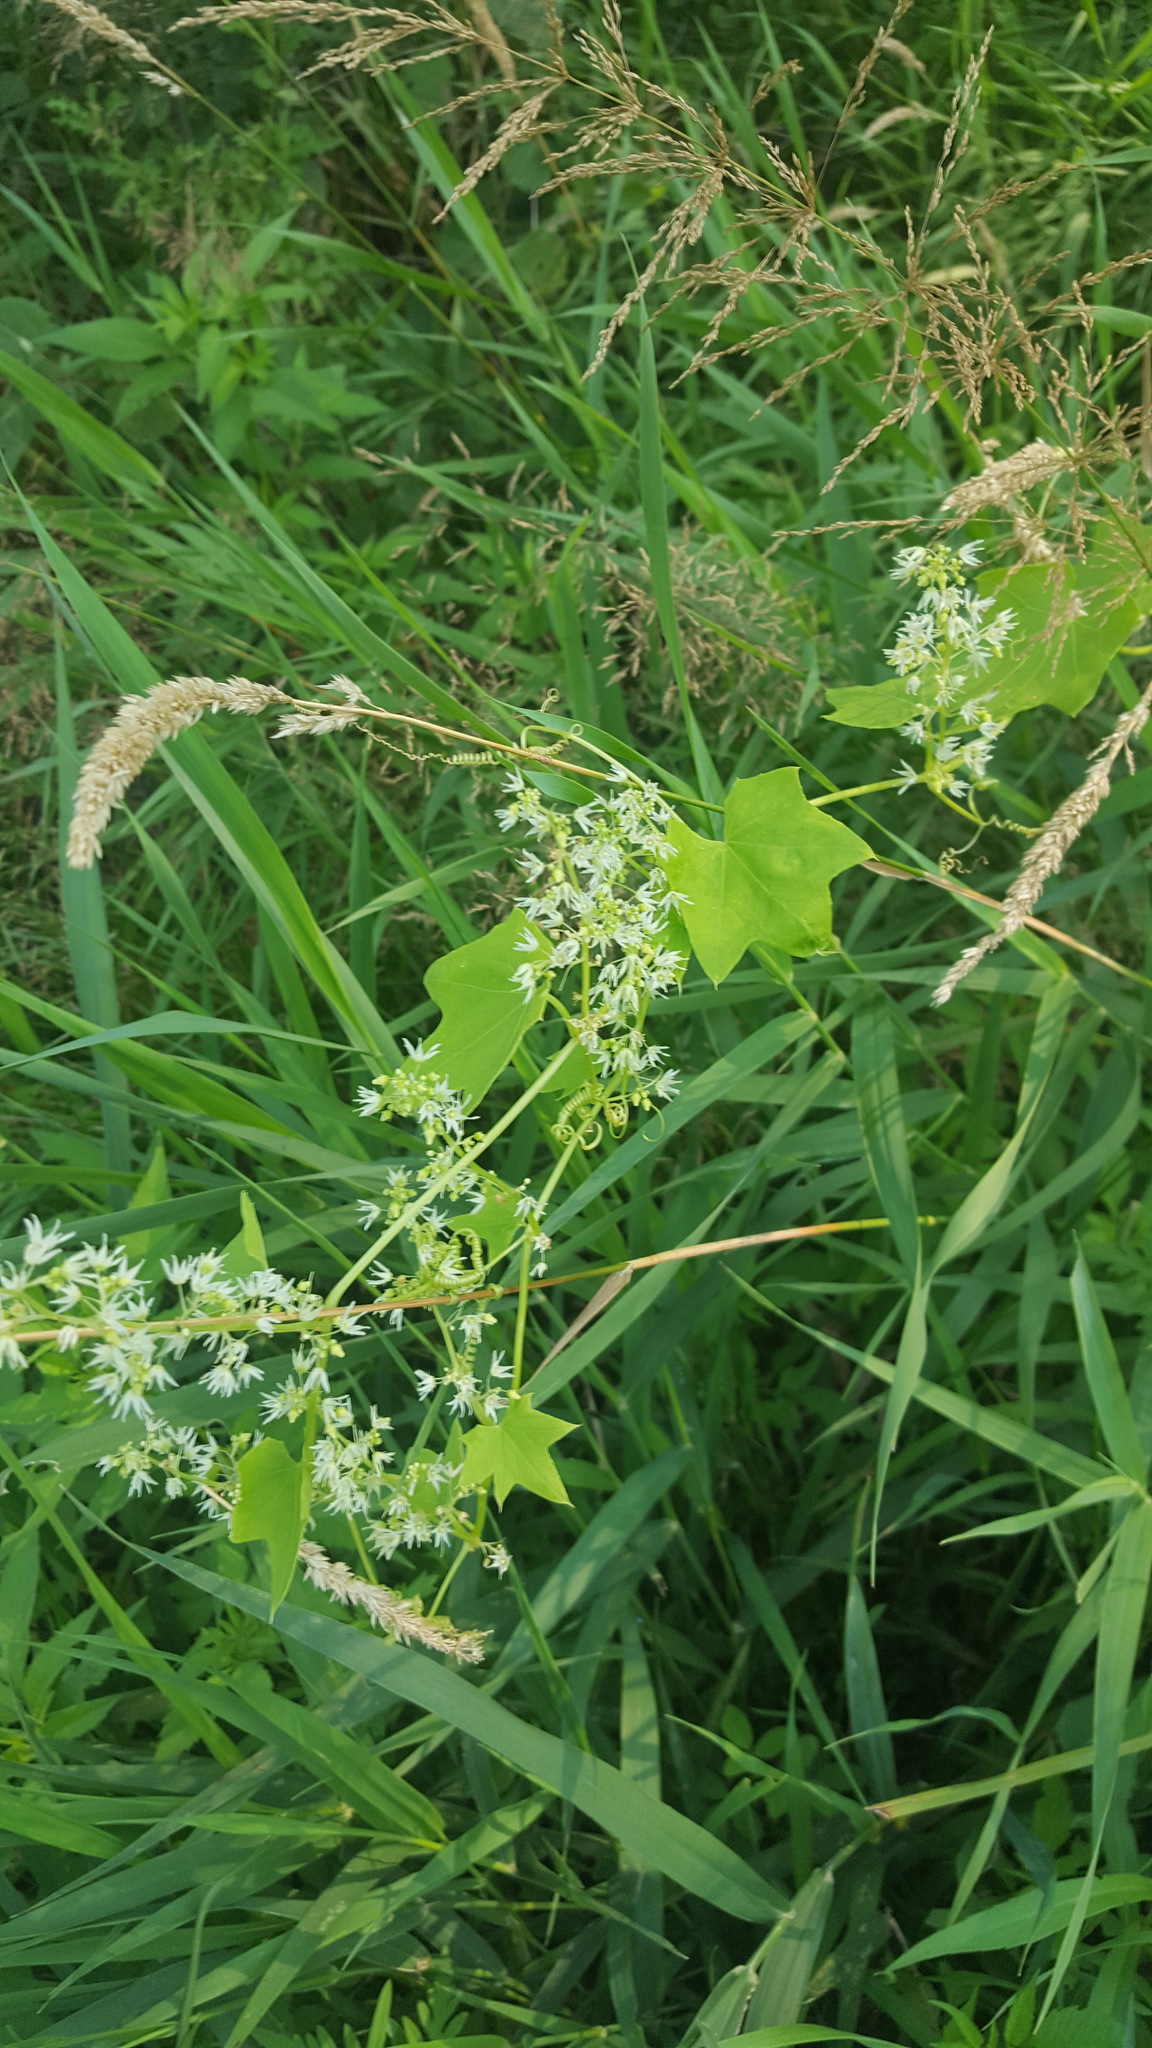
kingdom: Plantae
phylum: Tracheophyta
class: Magnoliopsida
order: Cucurbitales
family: Cucurbitaceae
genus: Echinocystis
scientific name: Echinocystis lobata
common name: Wild cucumber
